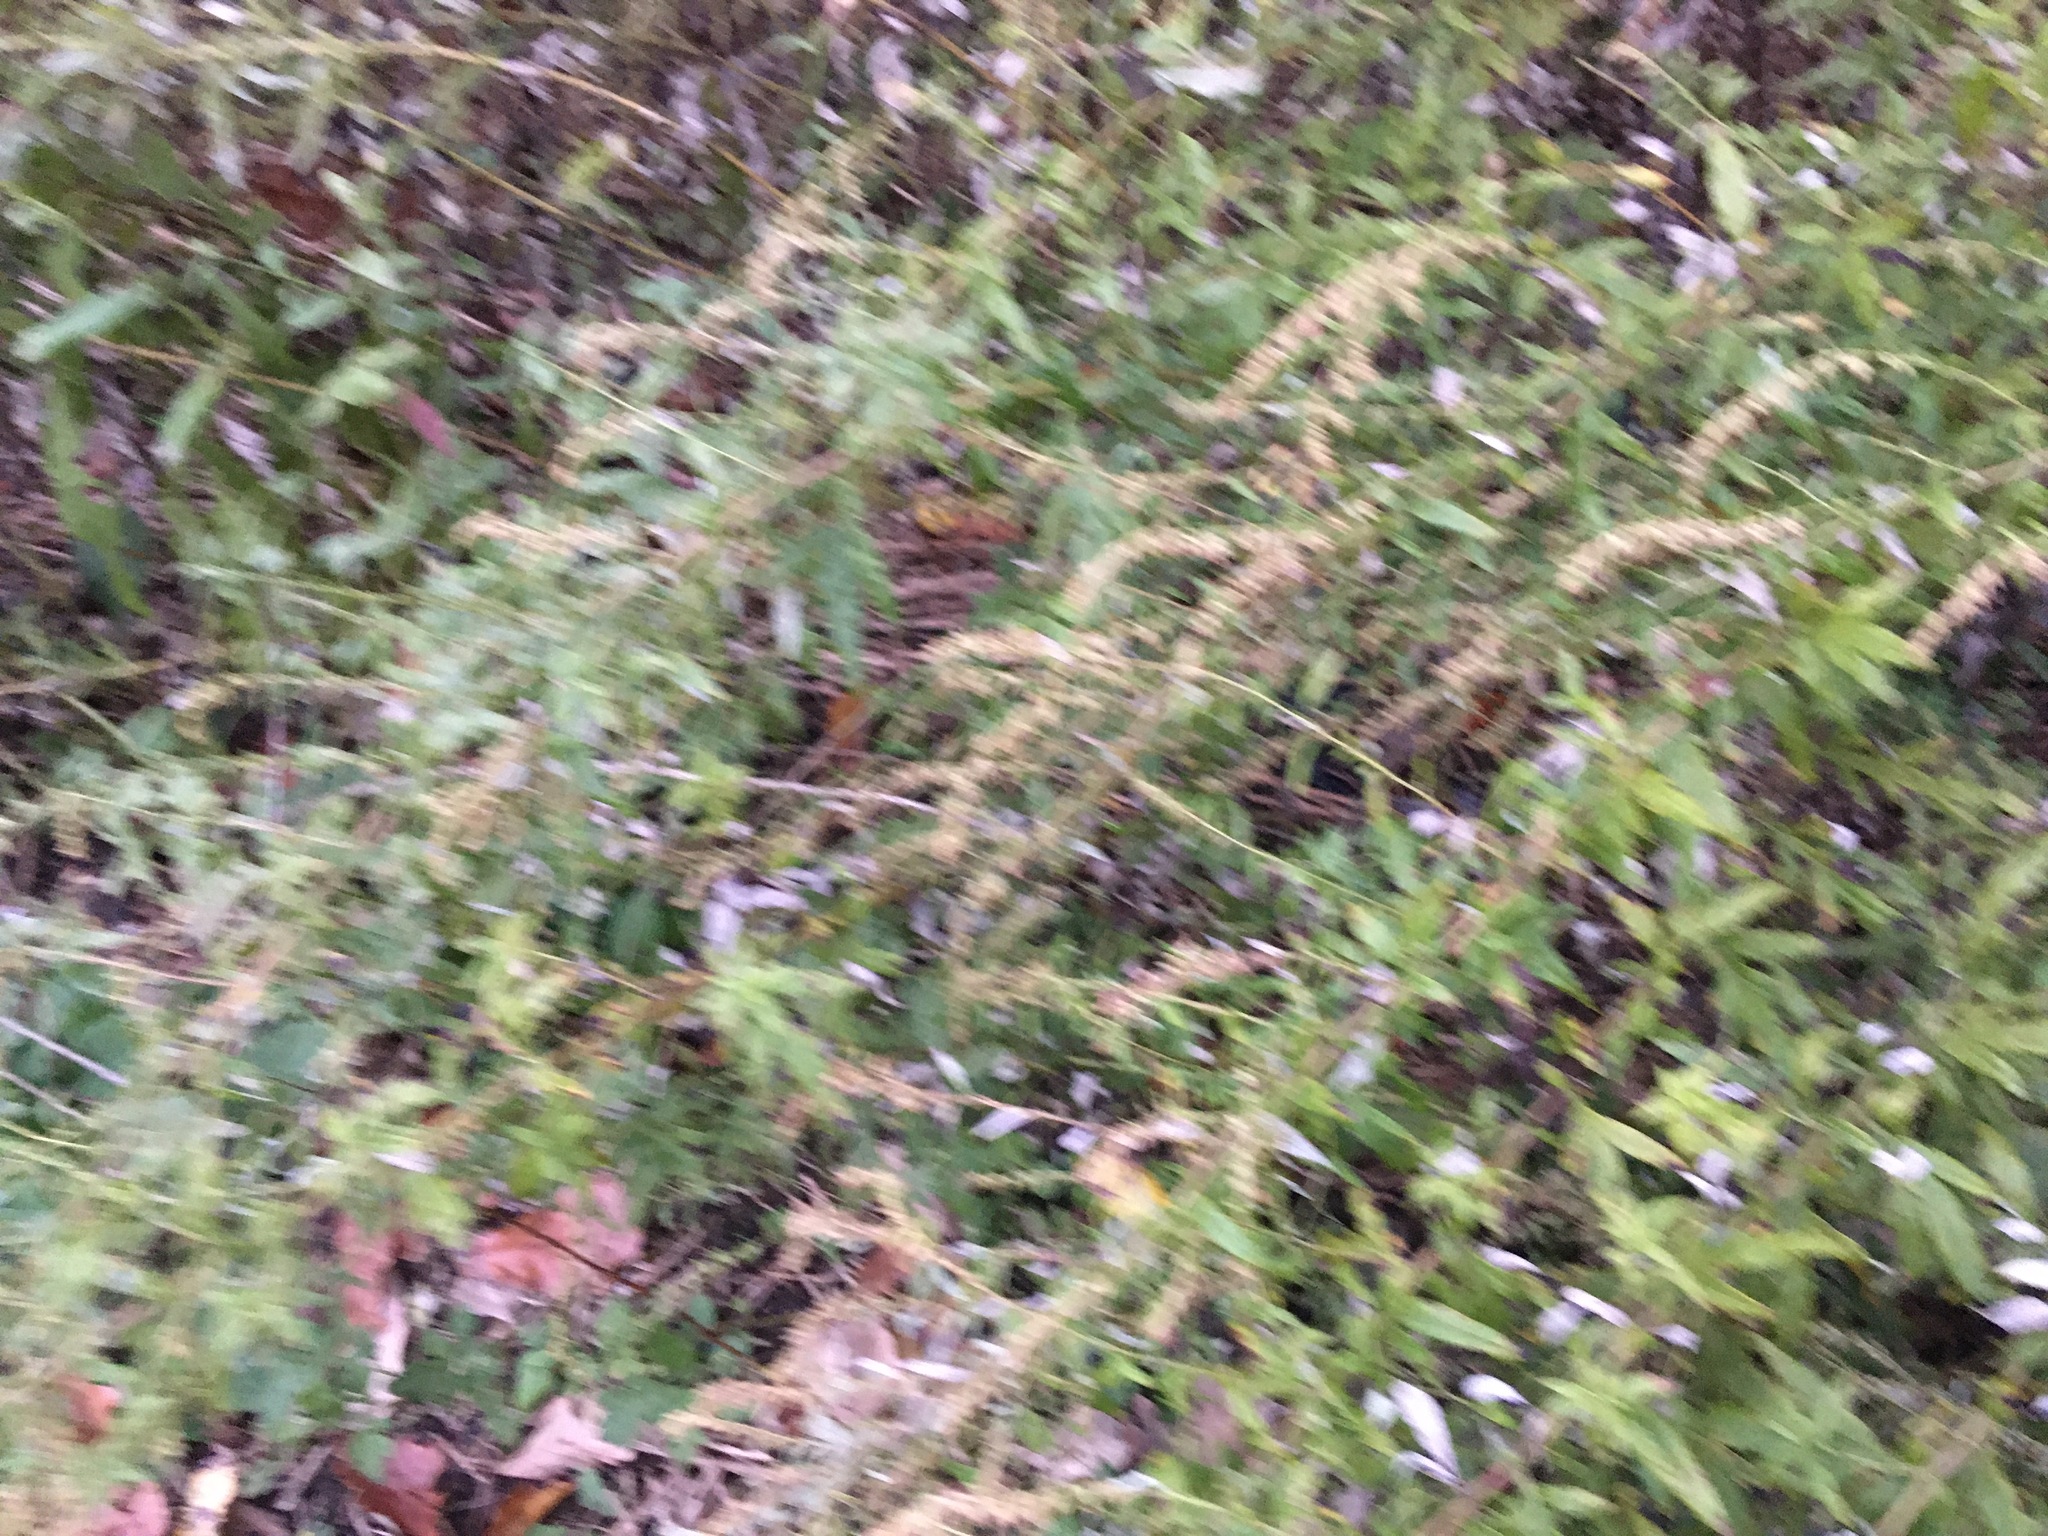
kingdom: Plantae
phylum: Tracheophyta
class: Magnoliopsida
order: Asterales
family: Asteraceae
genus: Artemisia
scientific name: Artemisia vulgaris
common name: Mugwort
